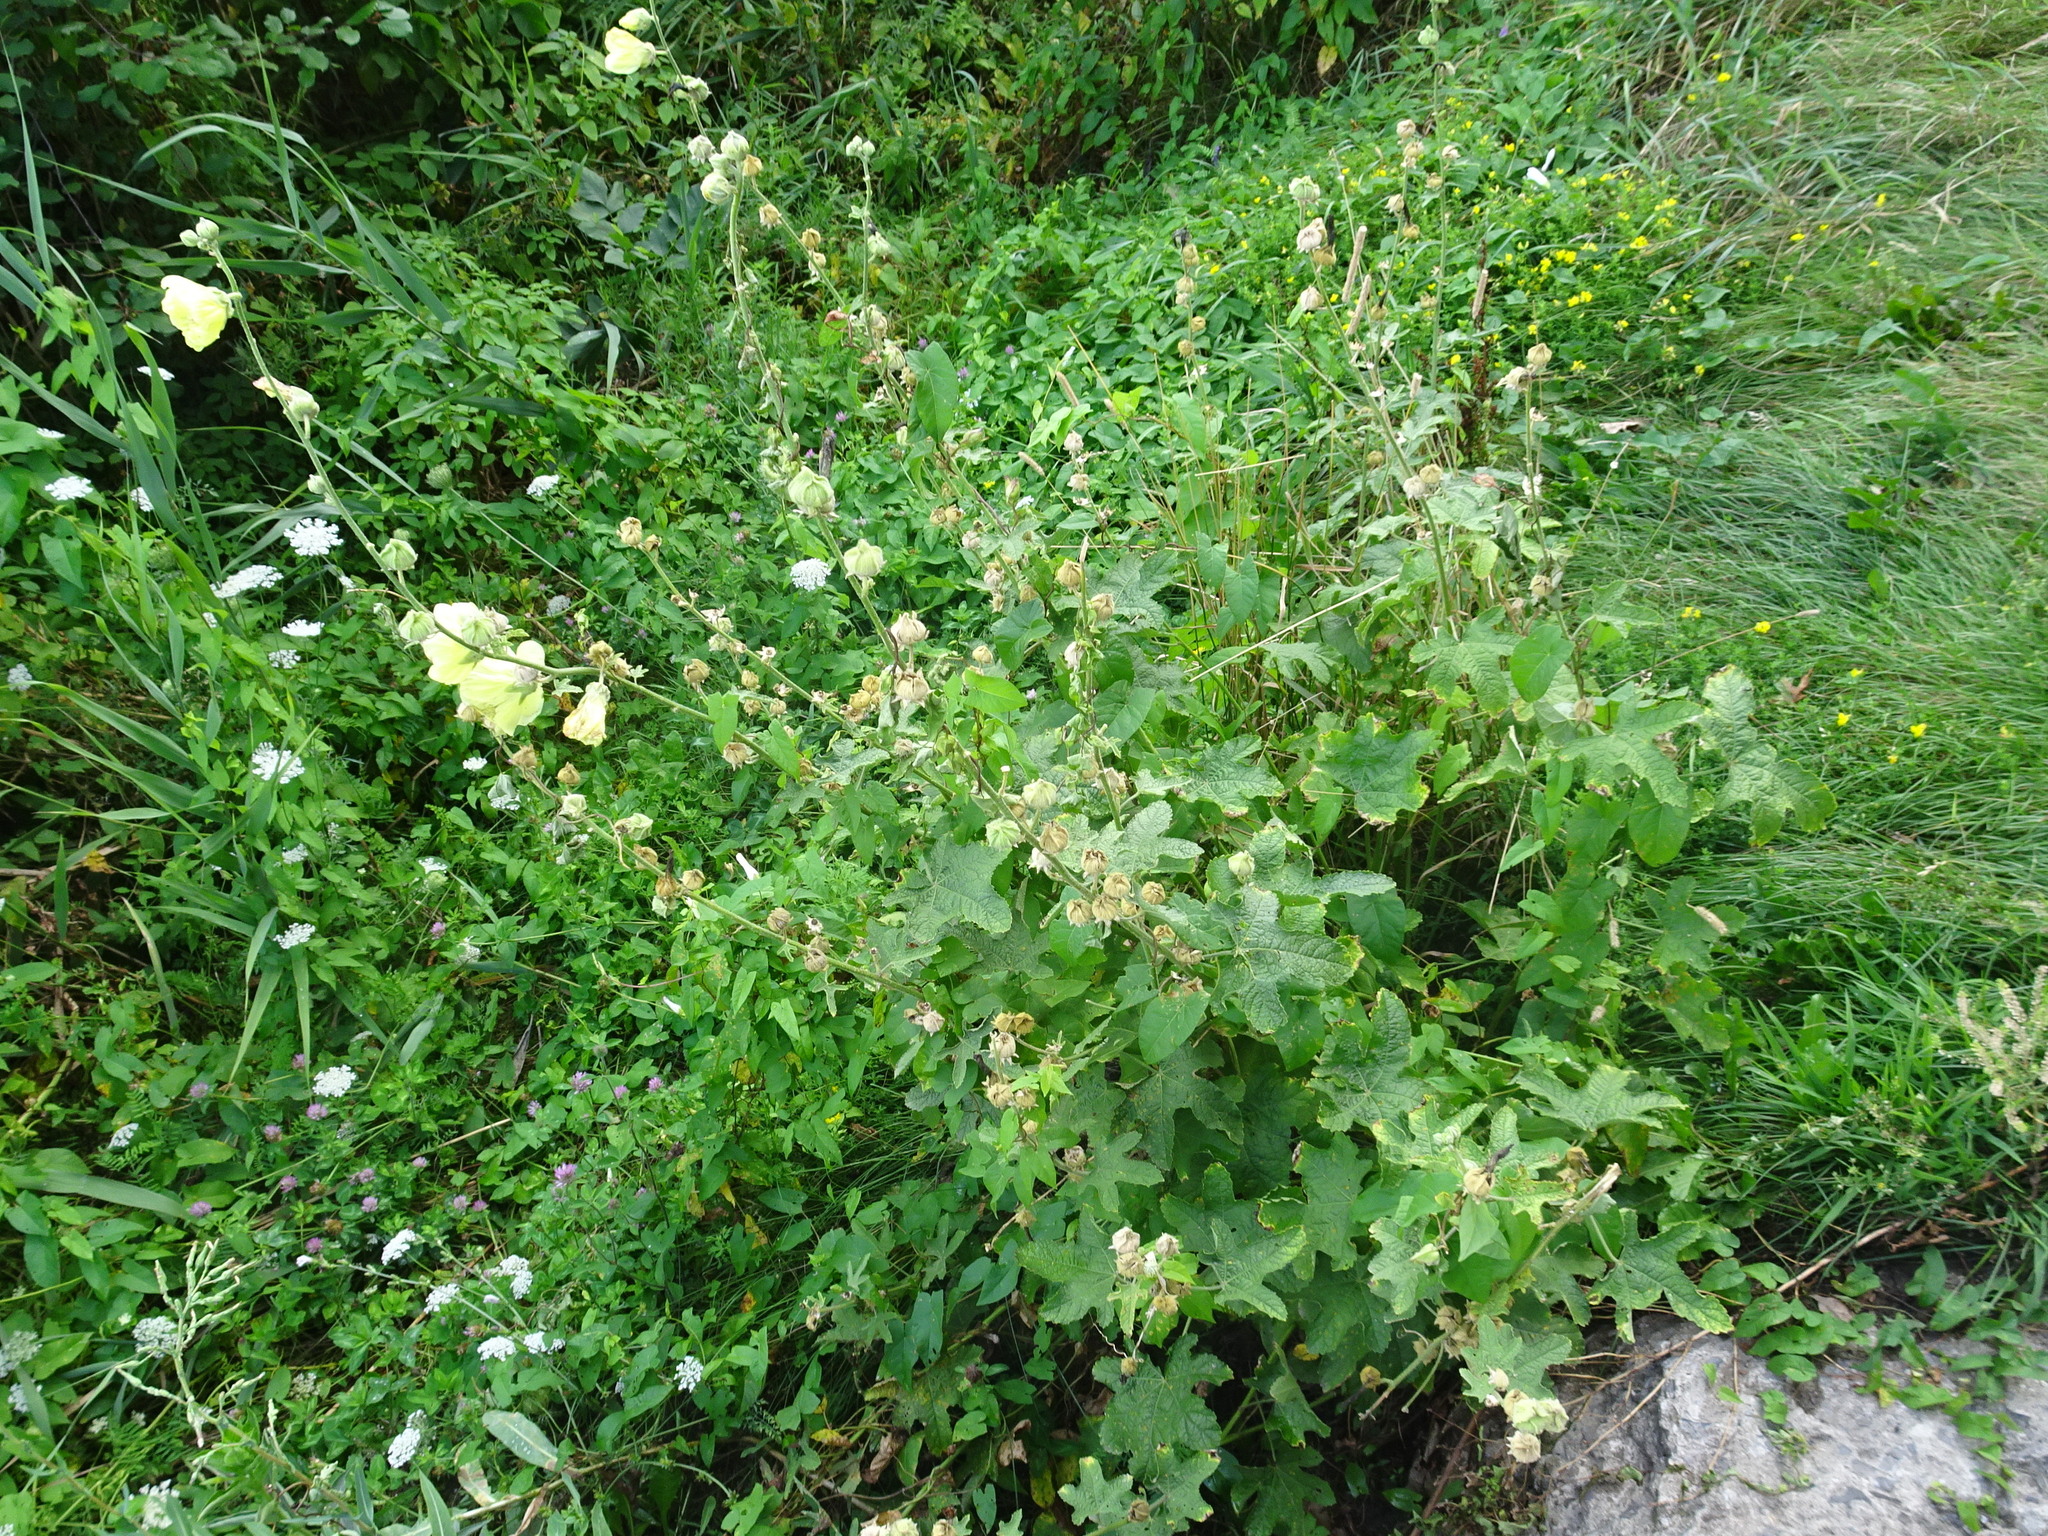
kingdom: Plantae
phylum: Tracheophyta
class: Magnoliopsida
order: Malvales
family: Malvaceae
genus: Alcea
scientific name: Alcea rosea
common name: Hollyhock
